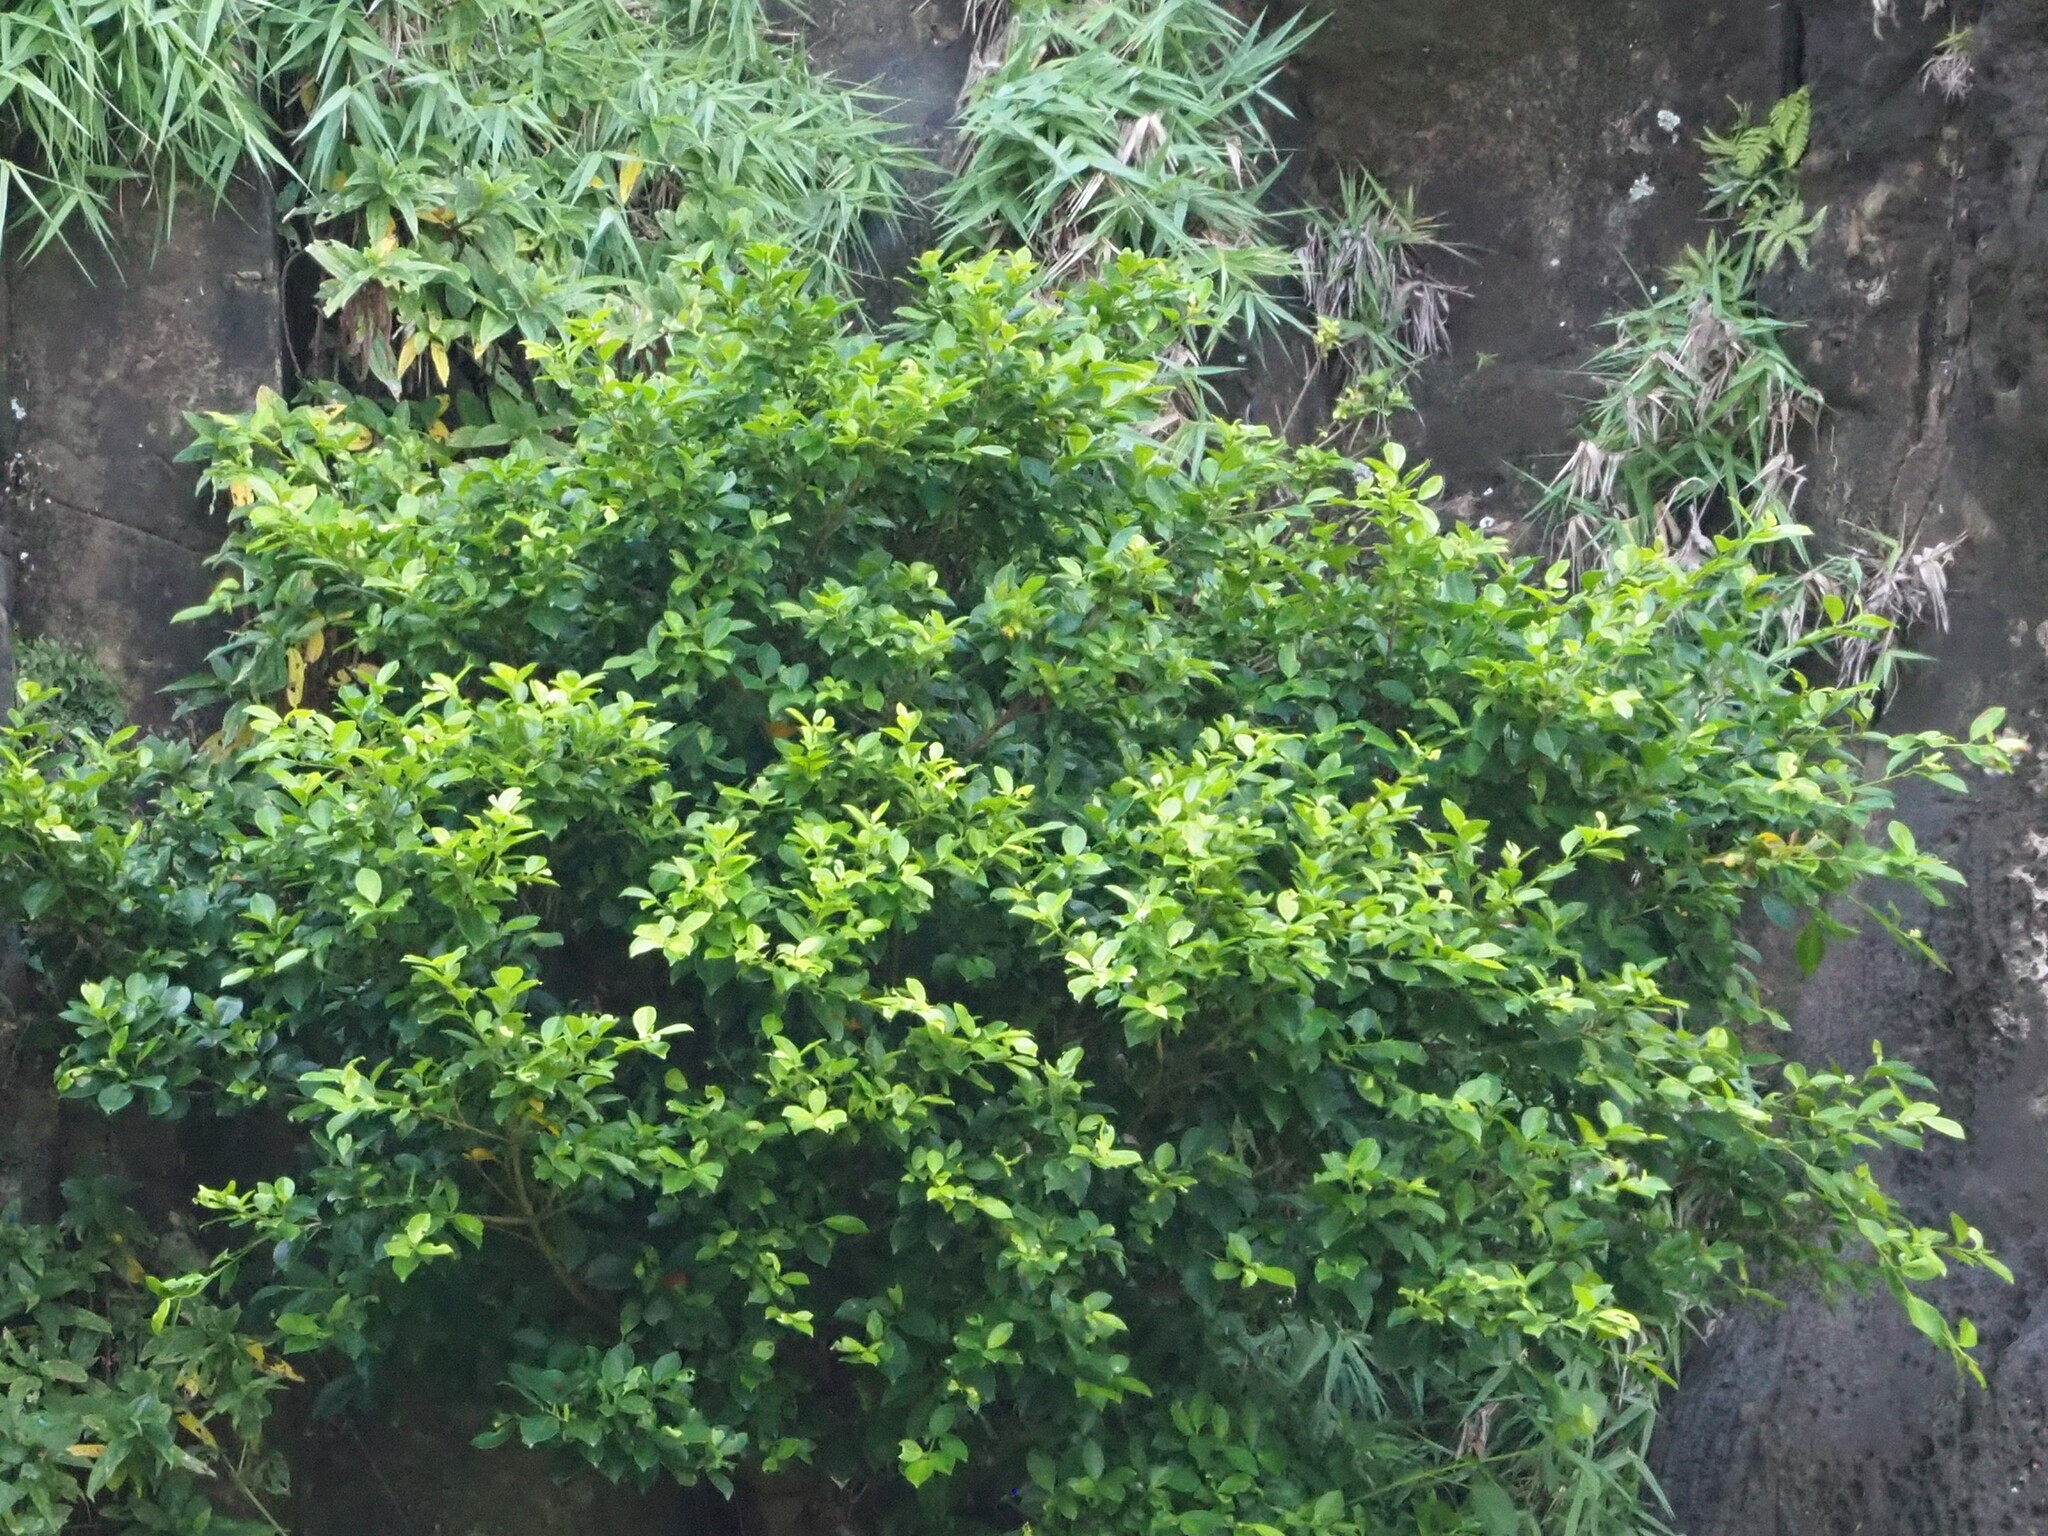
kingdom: Plantae
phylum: Tracheophyta
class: Magnoliopsida
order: Rosales
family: Moraceae
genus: Ficus
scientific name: Ficus microcarpa
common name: Chinese banyan
